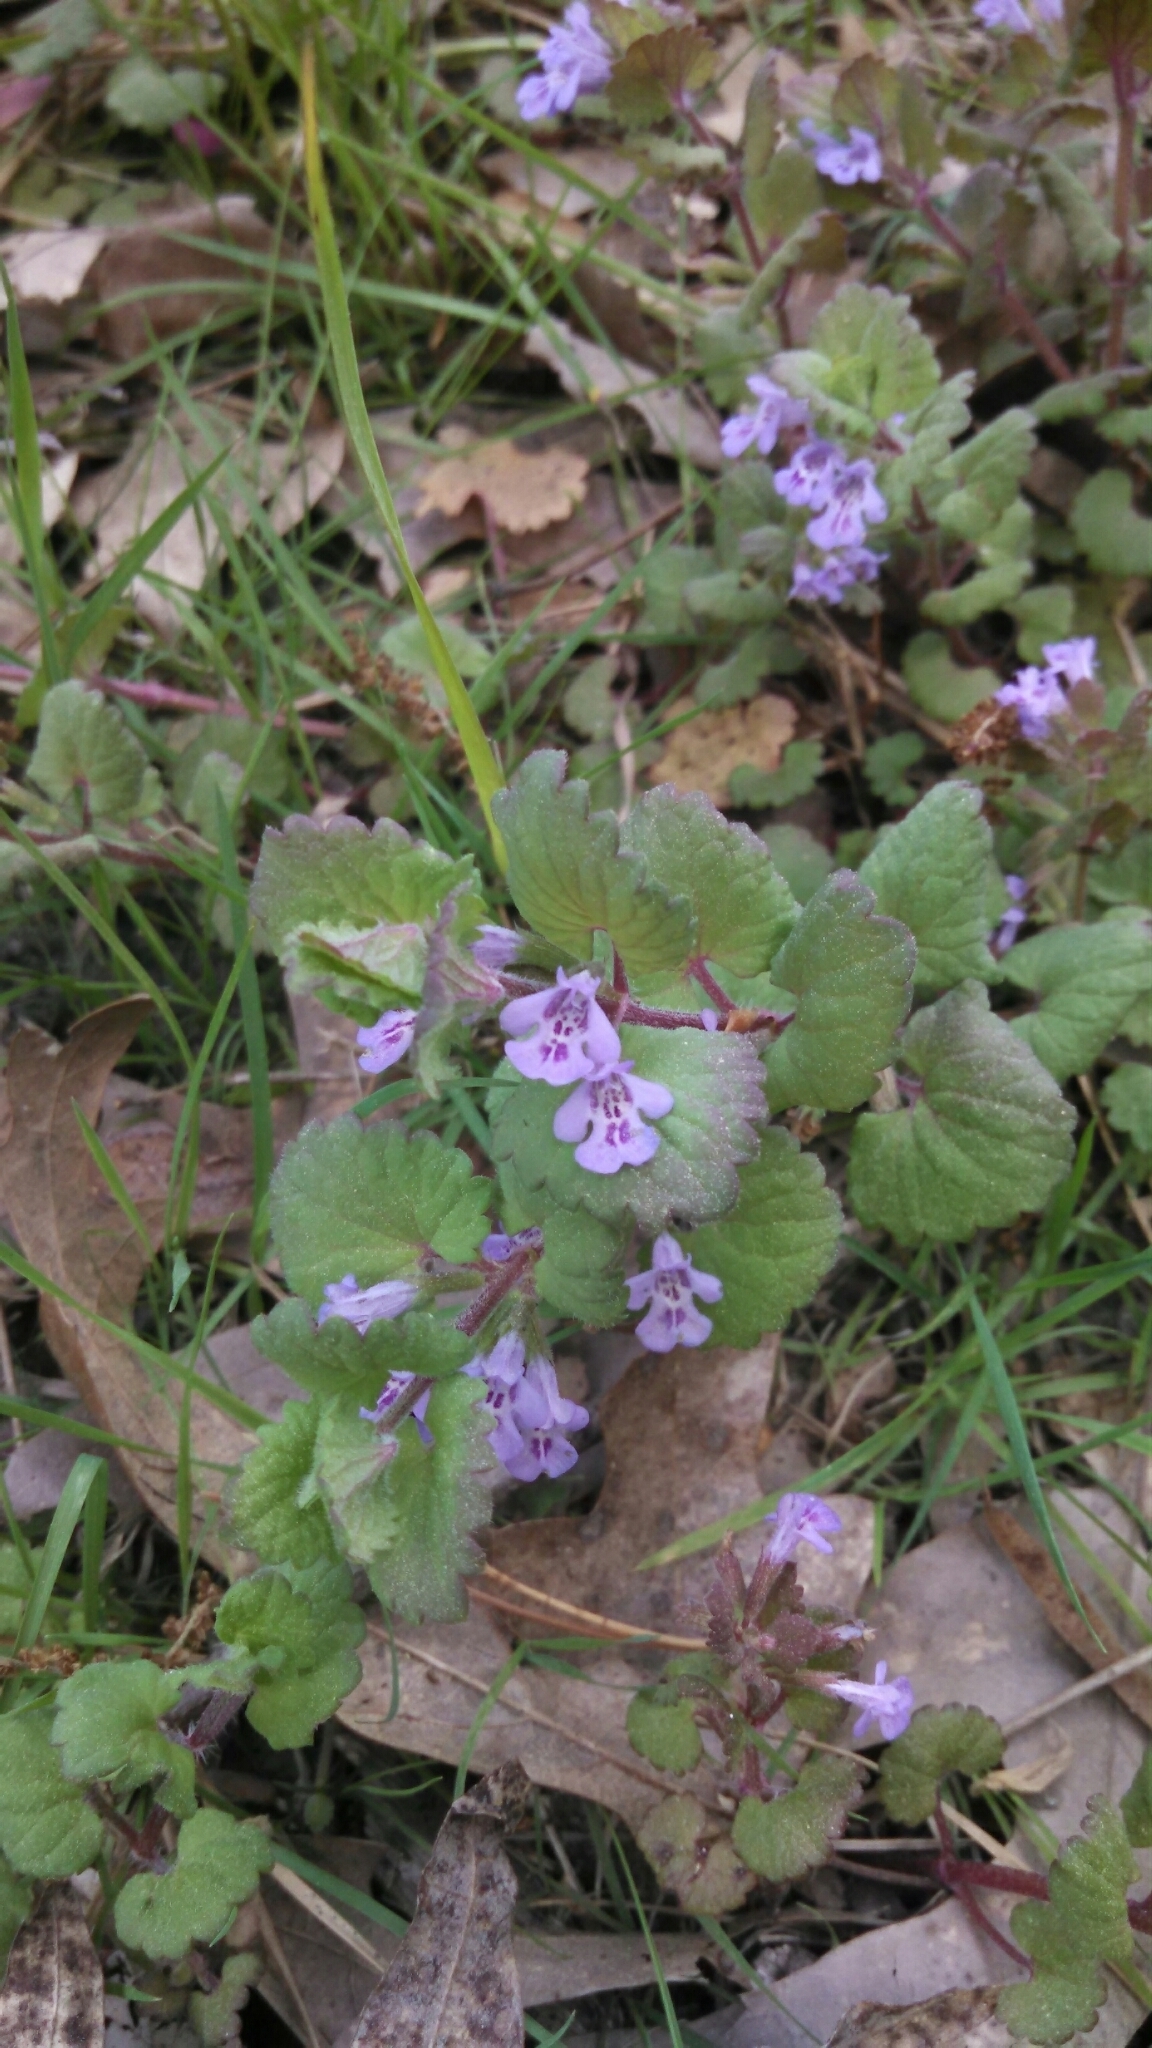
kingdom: Plantae
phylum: Tracheophyta
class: Magnoliopsida
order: Lamiales
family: Lamiaceae
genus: Glechoma
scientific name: Glechoma hederacea
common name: Ground ivy
